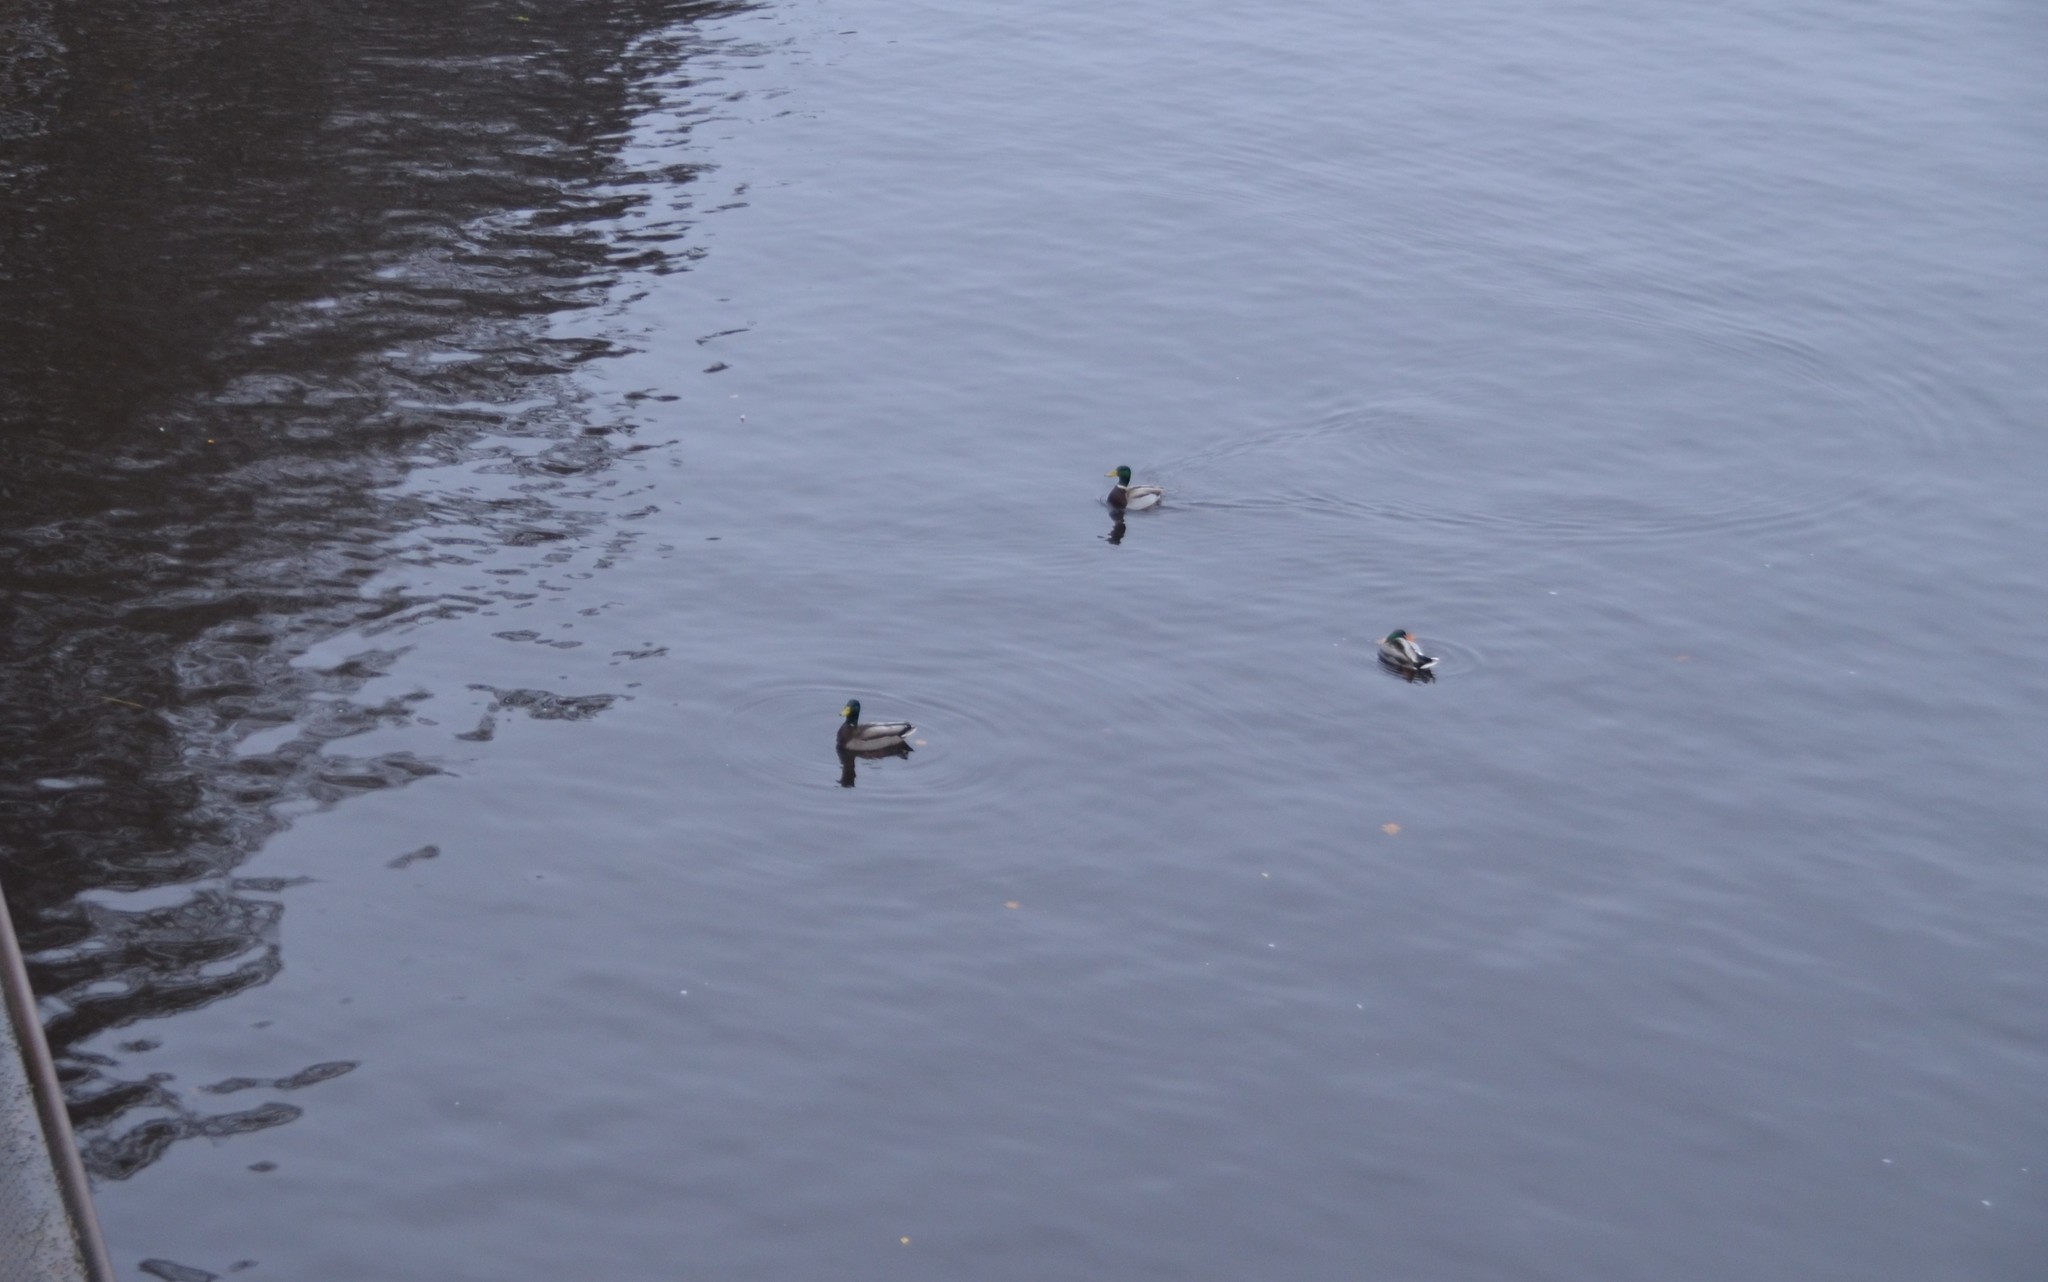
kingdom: Animalia
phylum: Chordata
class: Aves
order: Anseriformes
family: Anatidae
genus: Anas
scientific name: Anas platyrhynchos
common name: Mallard
